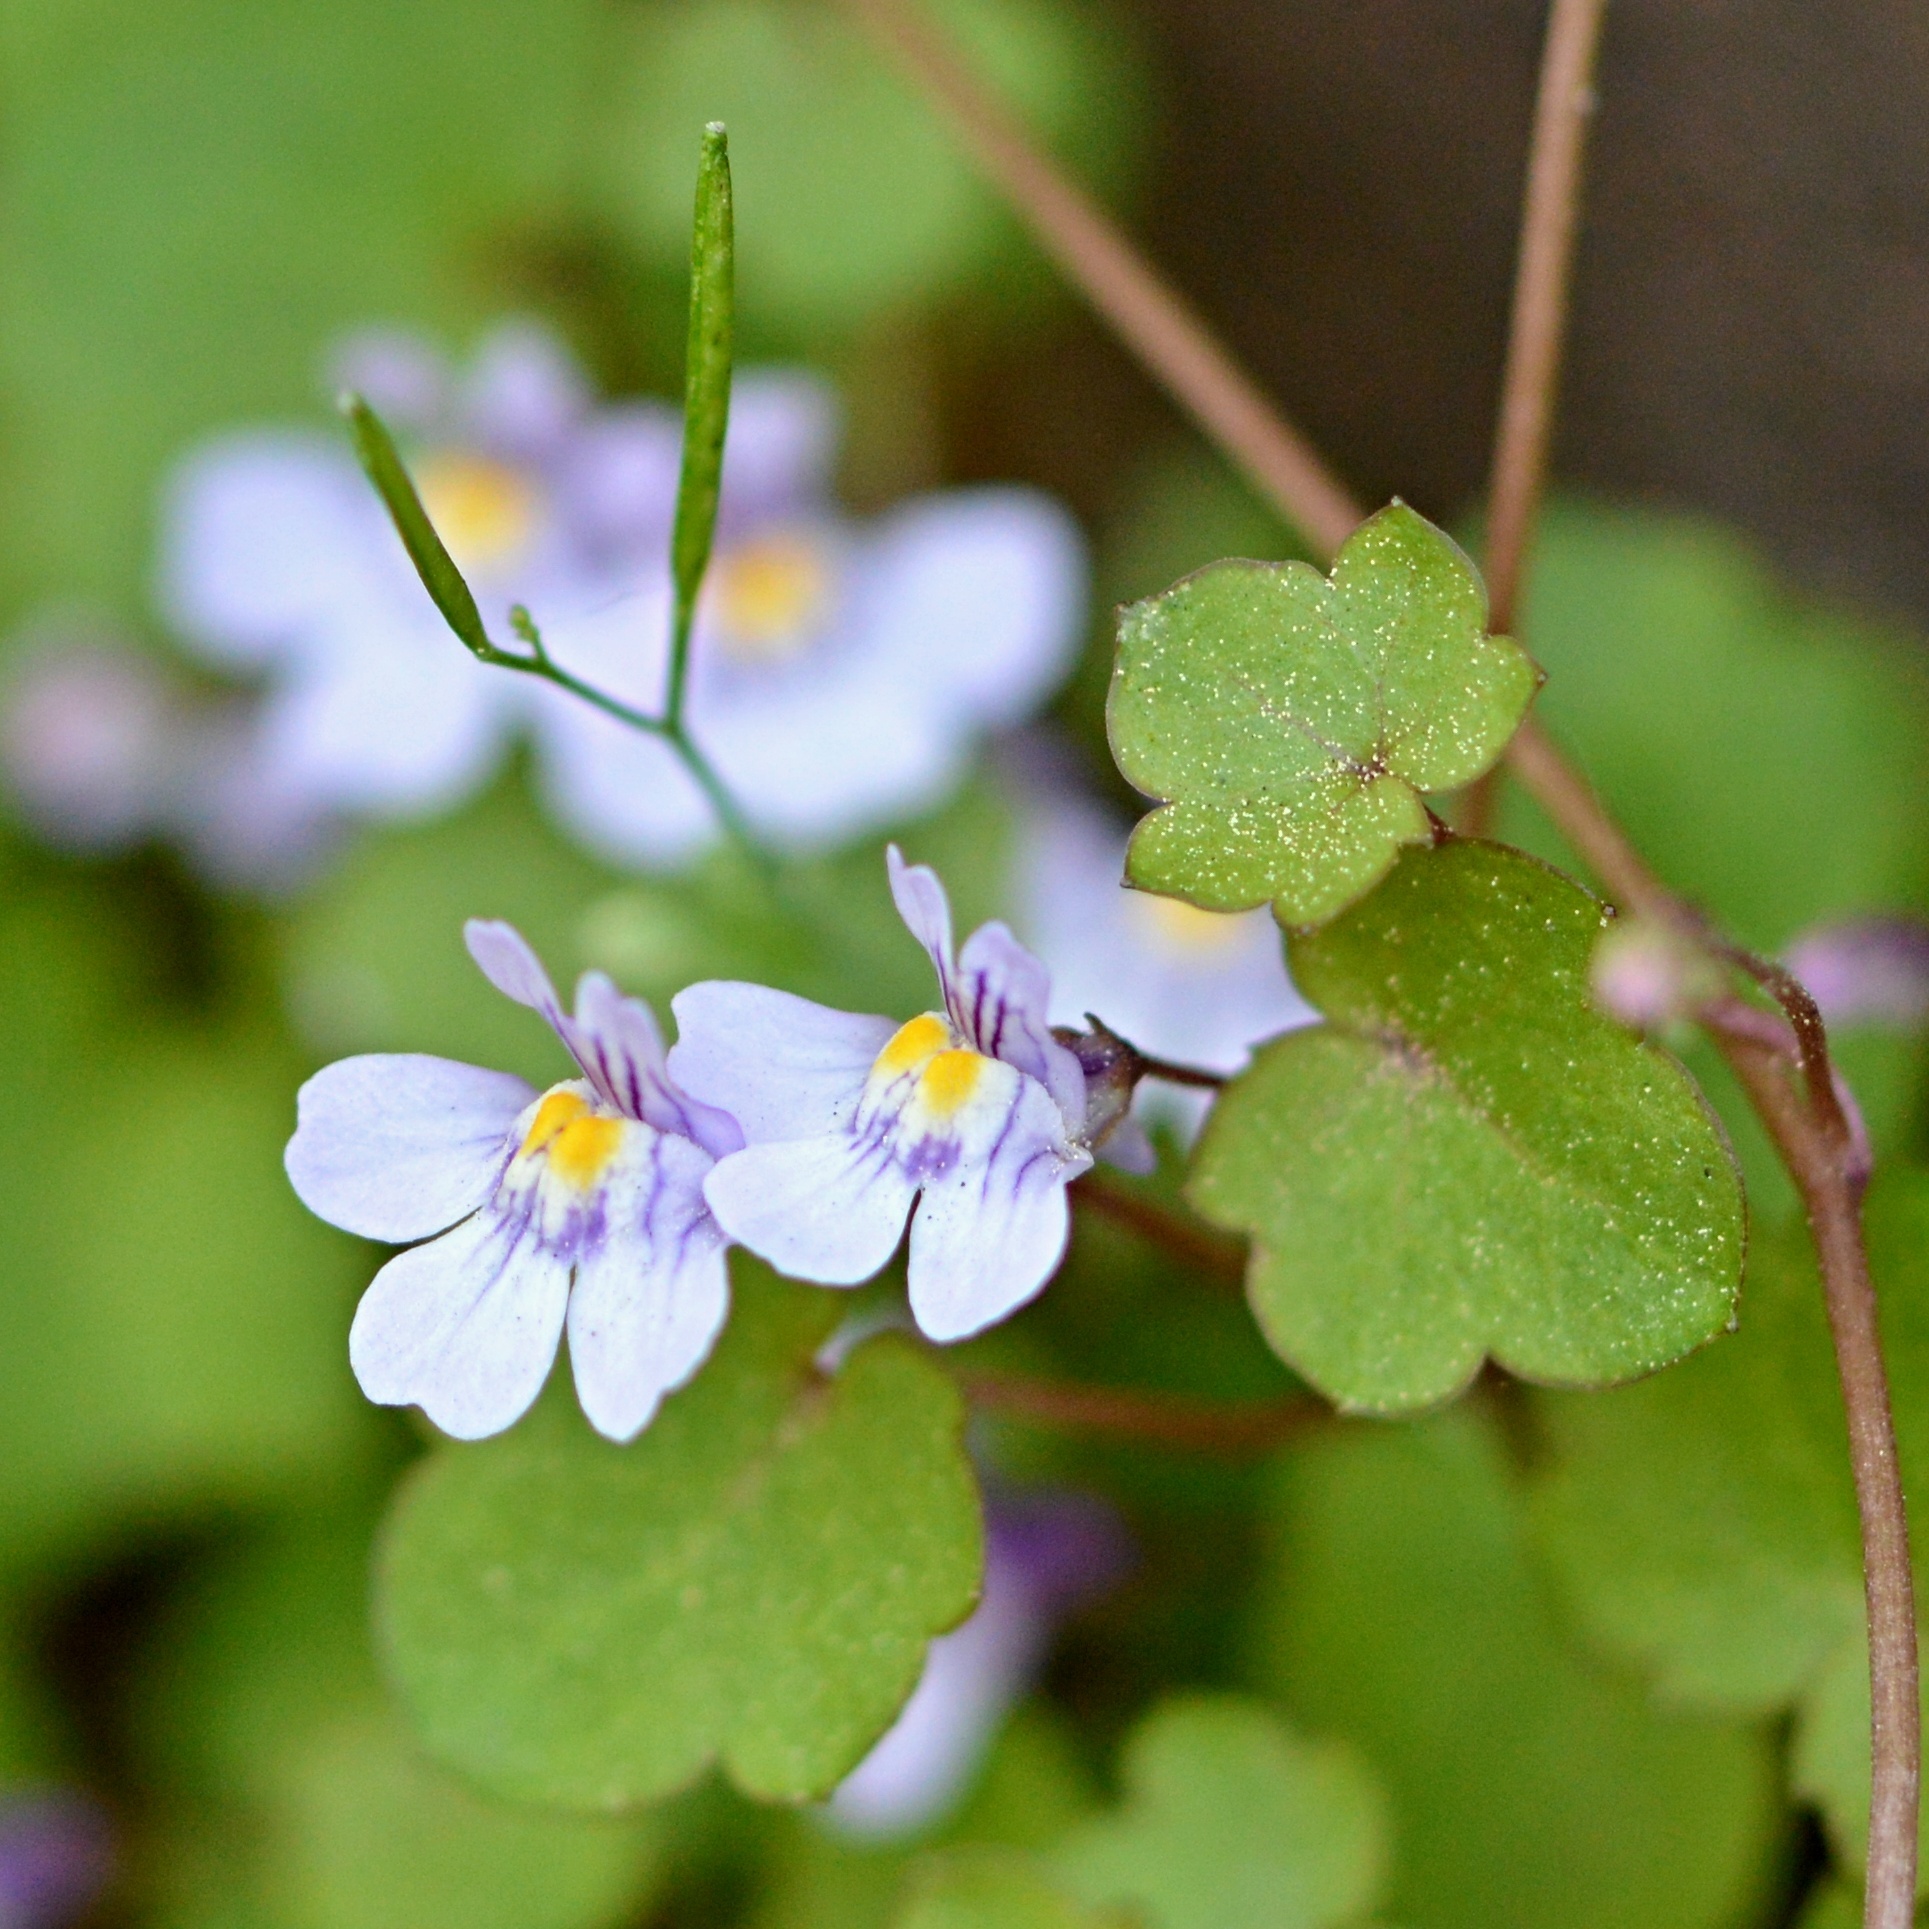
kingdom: Plantae
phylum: Tracheophyta
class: Magnoliopsida
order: Lamiales
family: Plantaginaceae
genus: Cymbalaria
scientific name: Cymbalaria muralis
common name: Ivy-leaved toadflax
